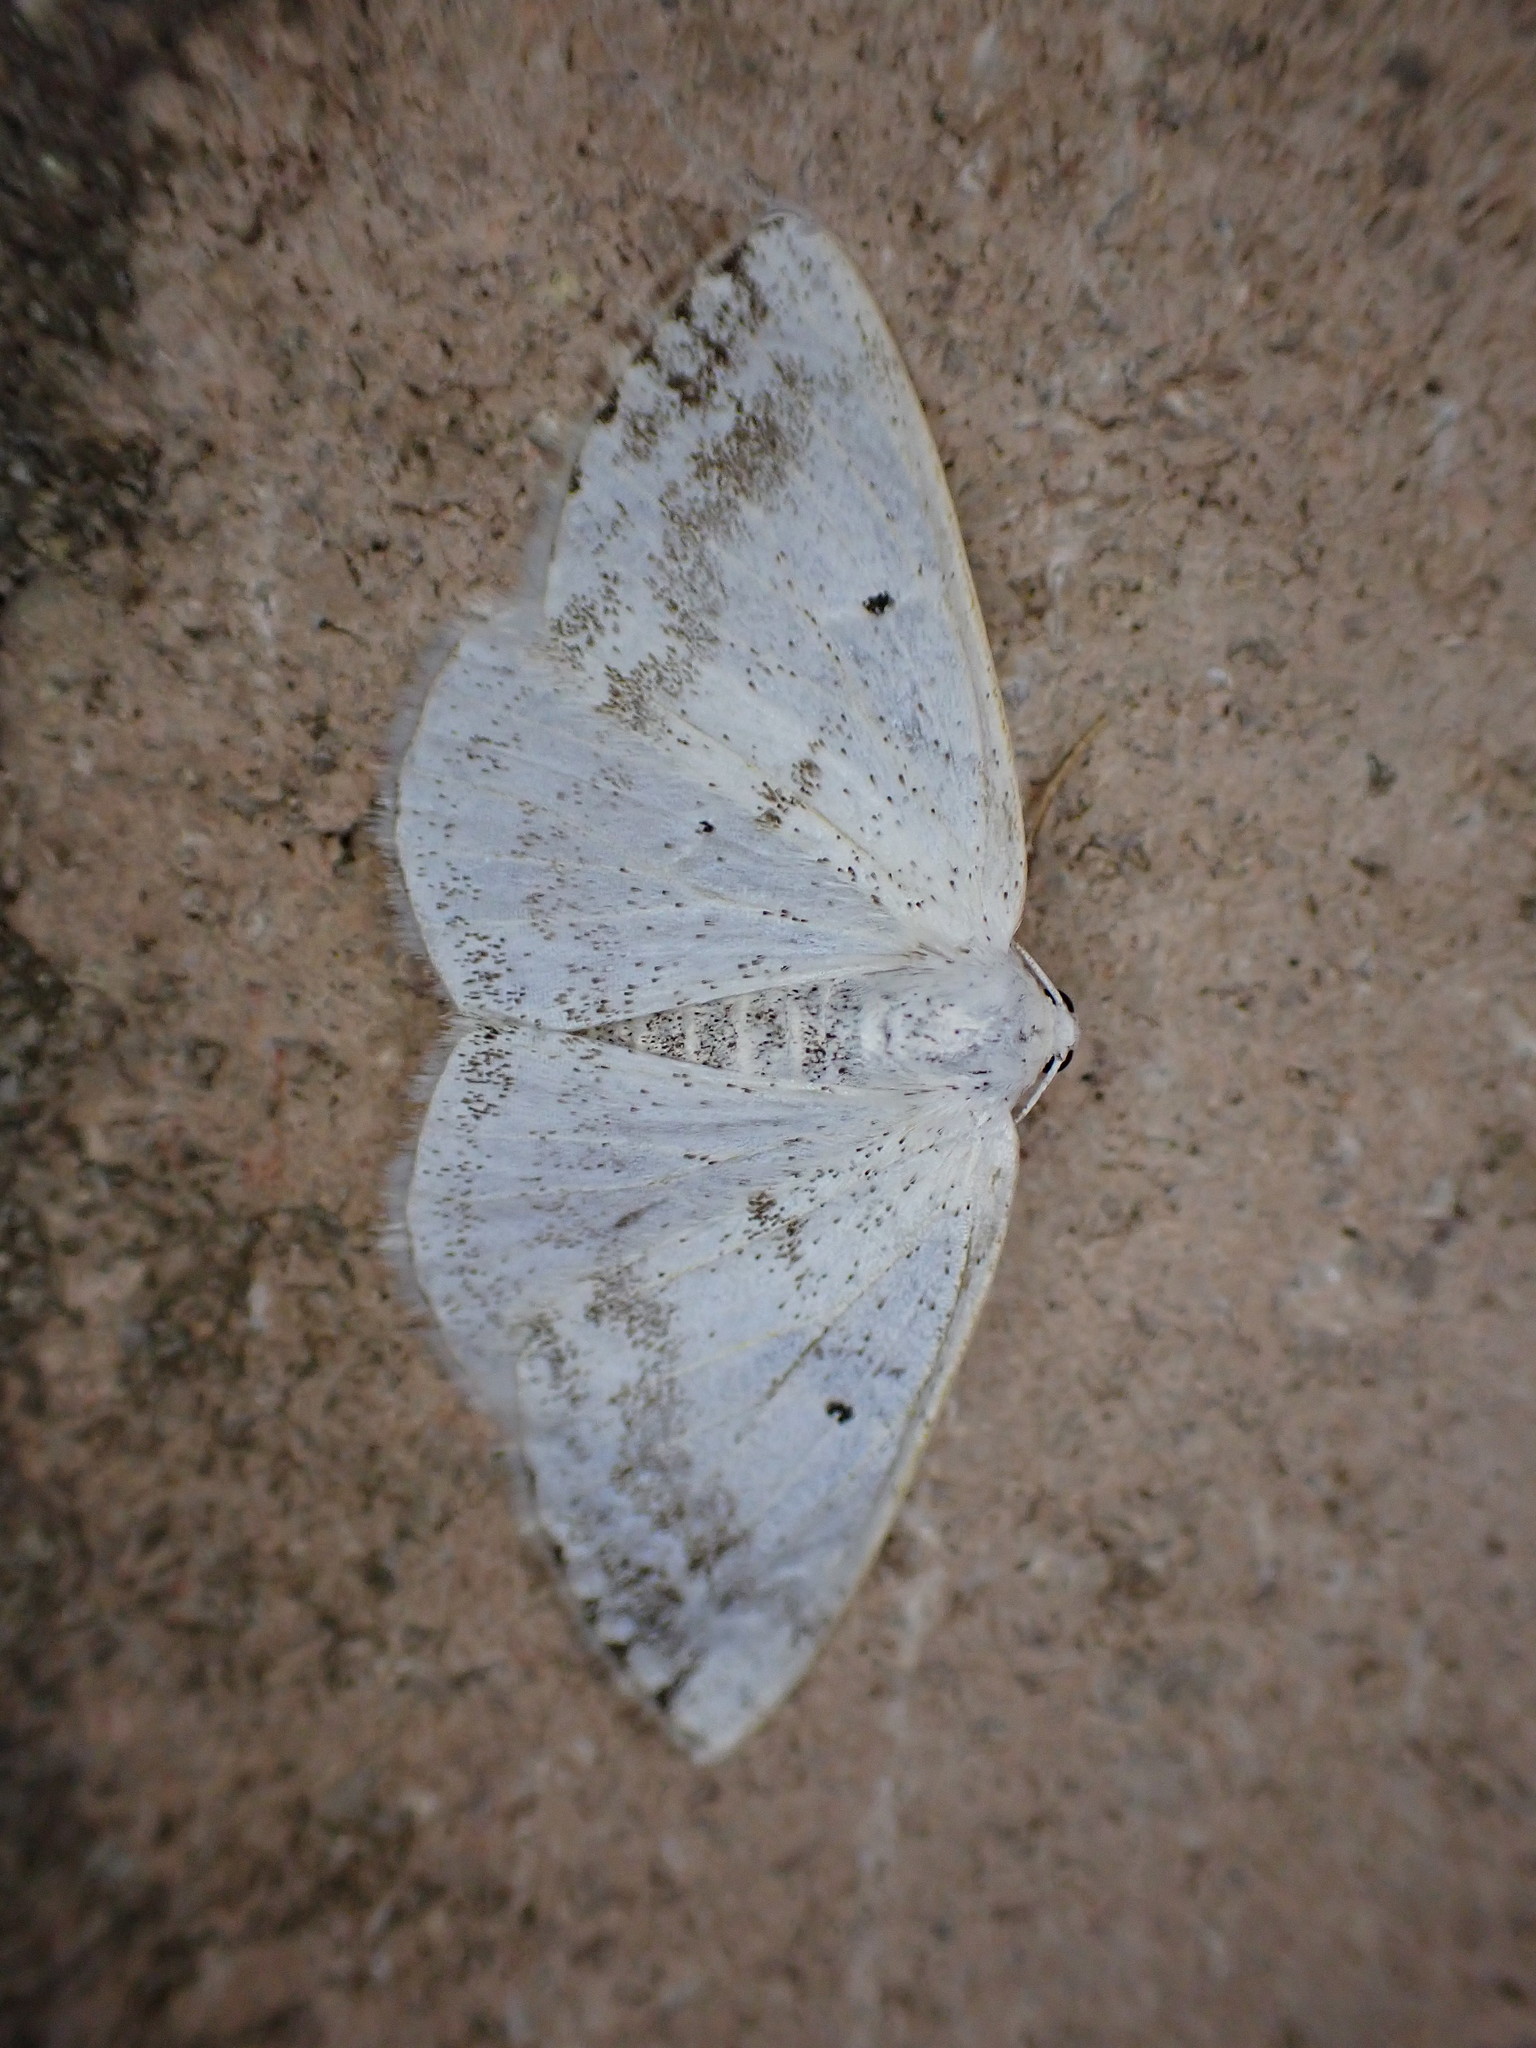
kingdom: Animalia
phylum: Arthropoda
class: Insecta
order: Lepidoptera
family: Geometridae
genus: Lomographa
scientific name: Lomographa temerata
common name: Clouded silver
